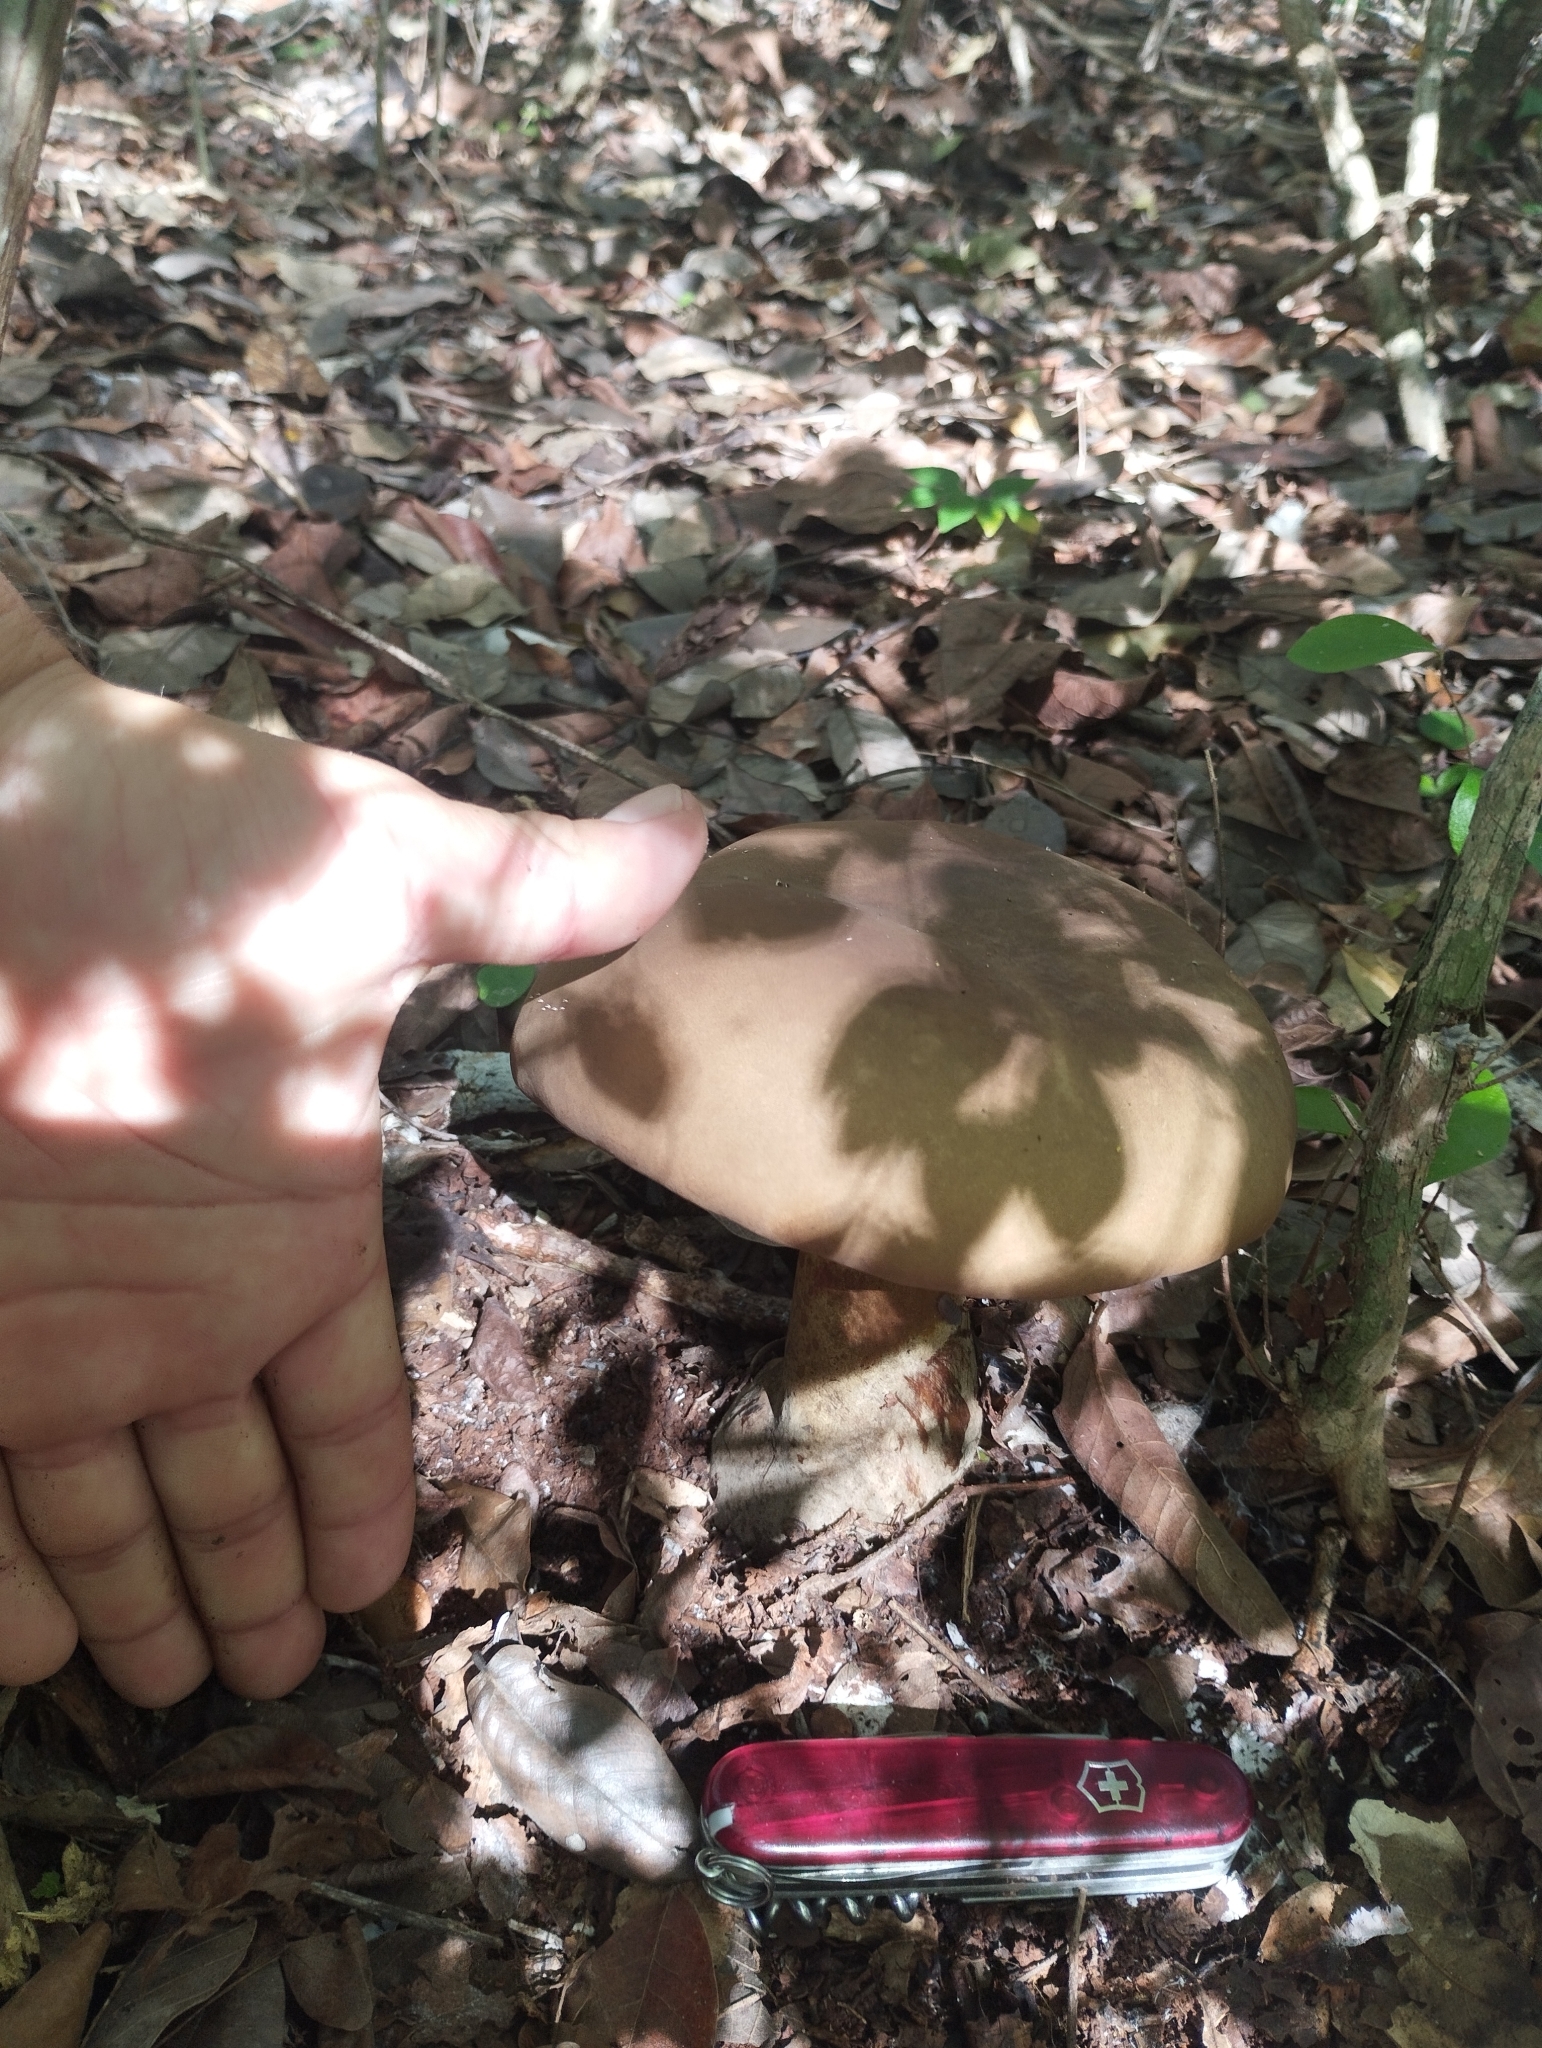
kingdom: Fungi
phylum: Basidiomycota
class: Agaricomycetes
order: Boletales
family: Boletinellaceae
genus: Phlebopus
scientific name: Phlebopus mexicanus
